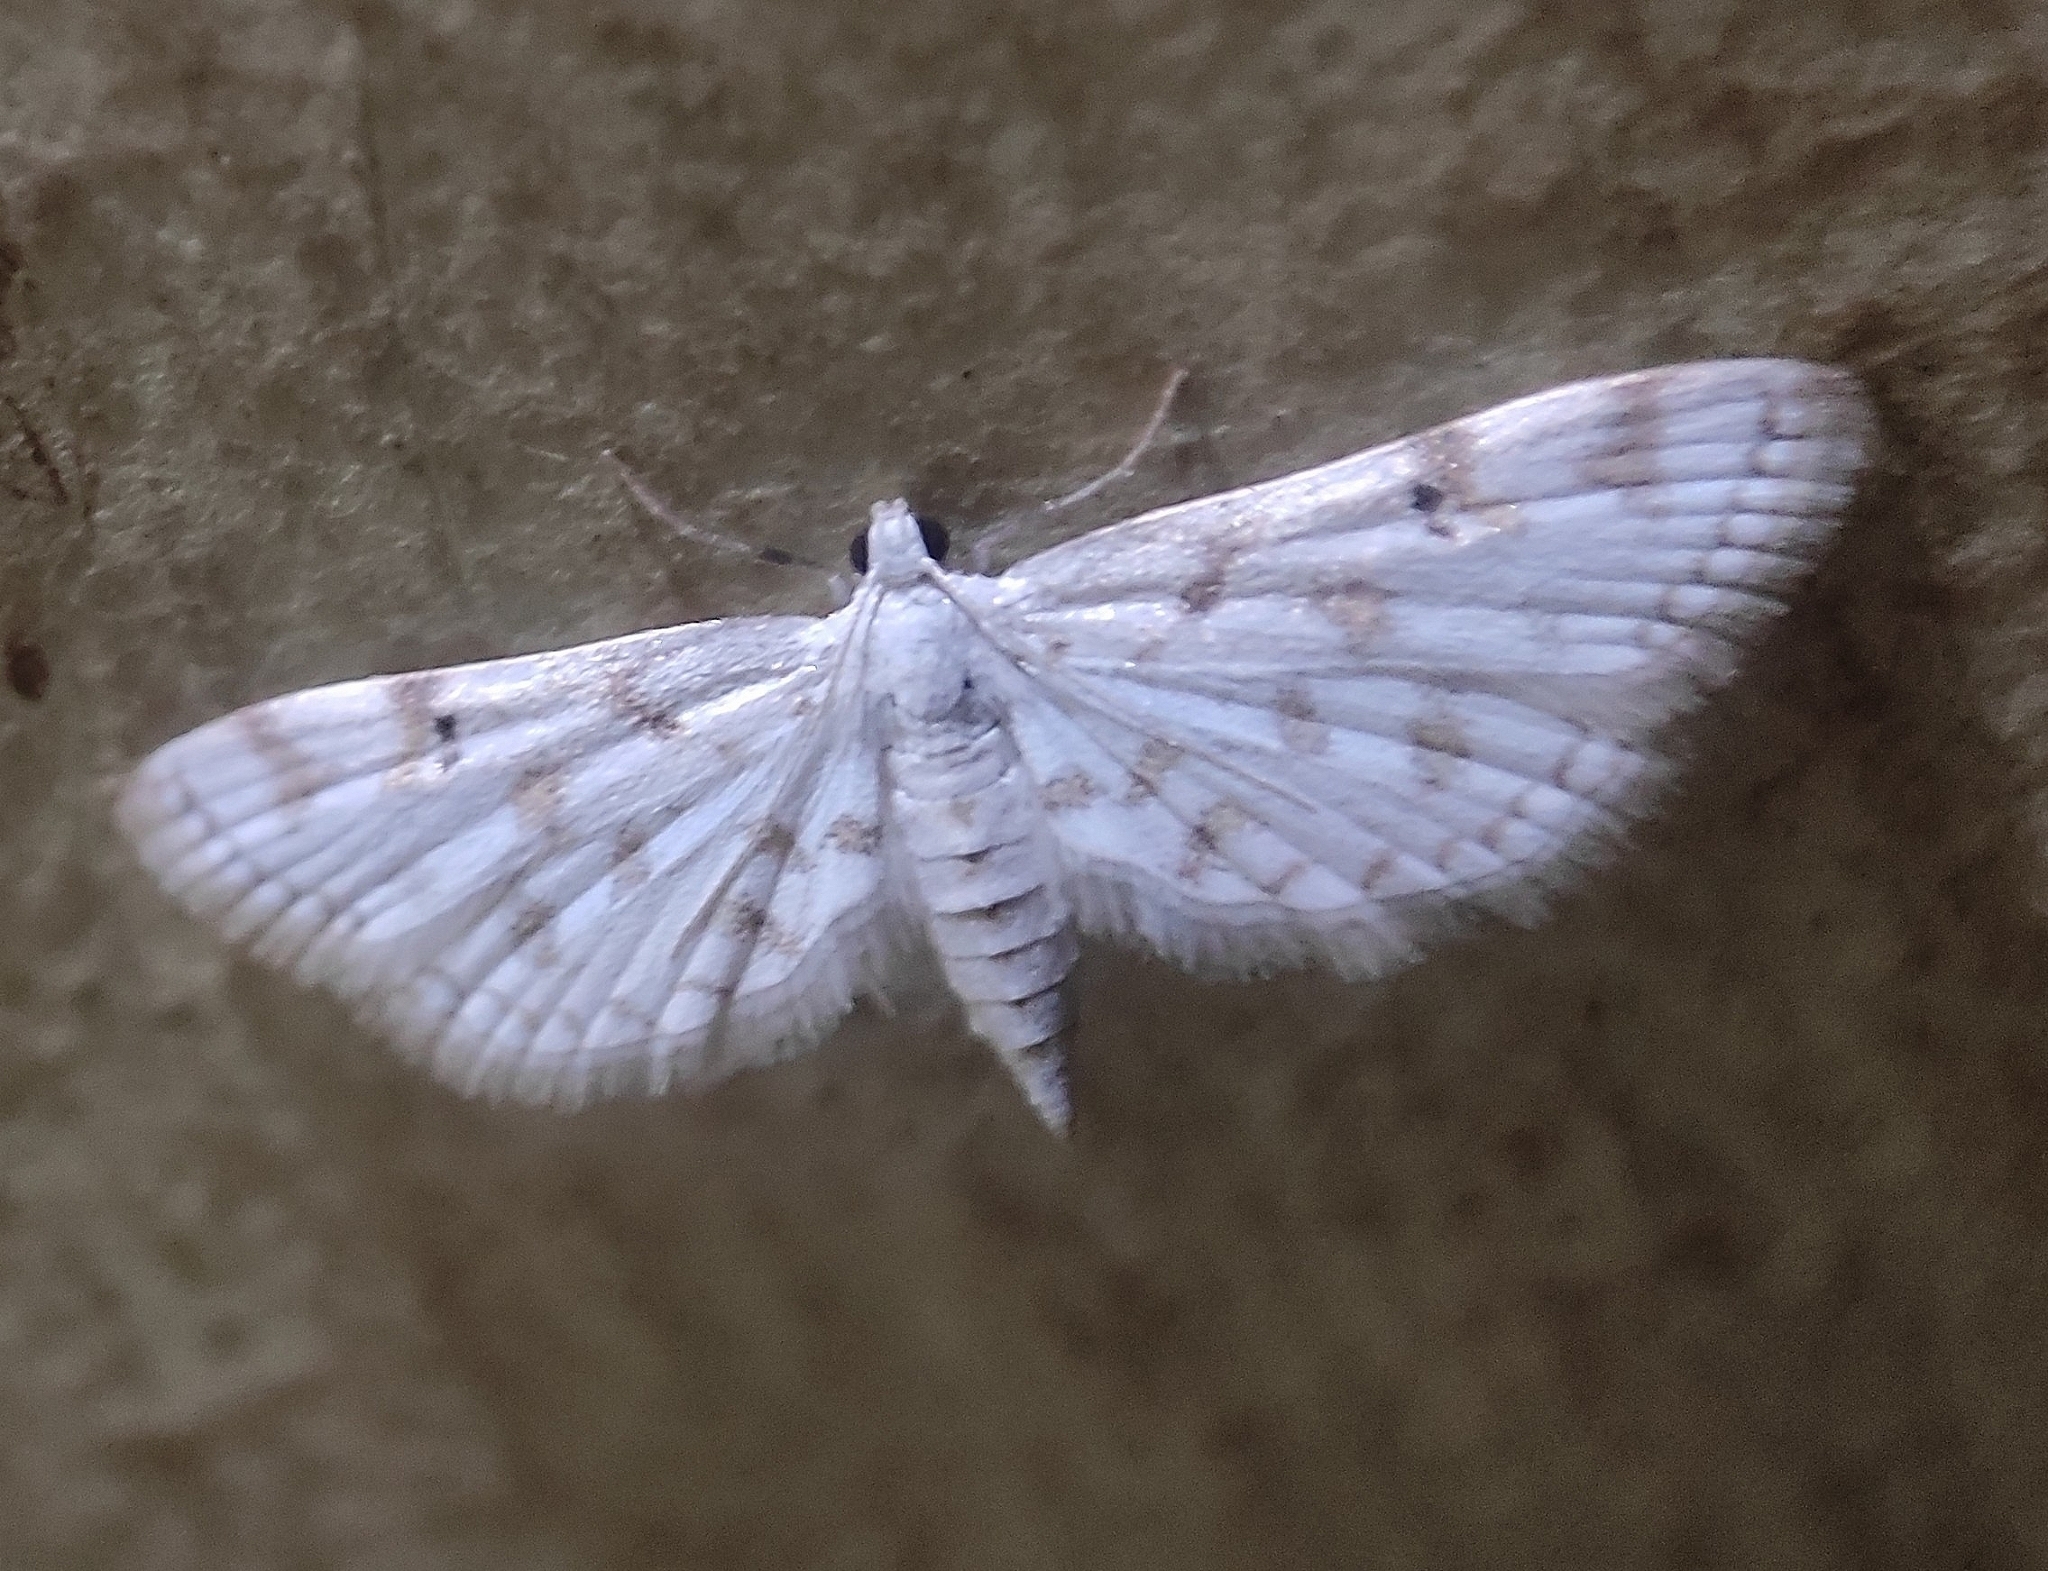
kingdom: Animalia
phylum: Arthropoda
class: Insecta
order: Lepidoptera
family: Crambidae
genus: Parapoynx
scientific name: Parapoynx stagnalis
